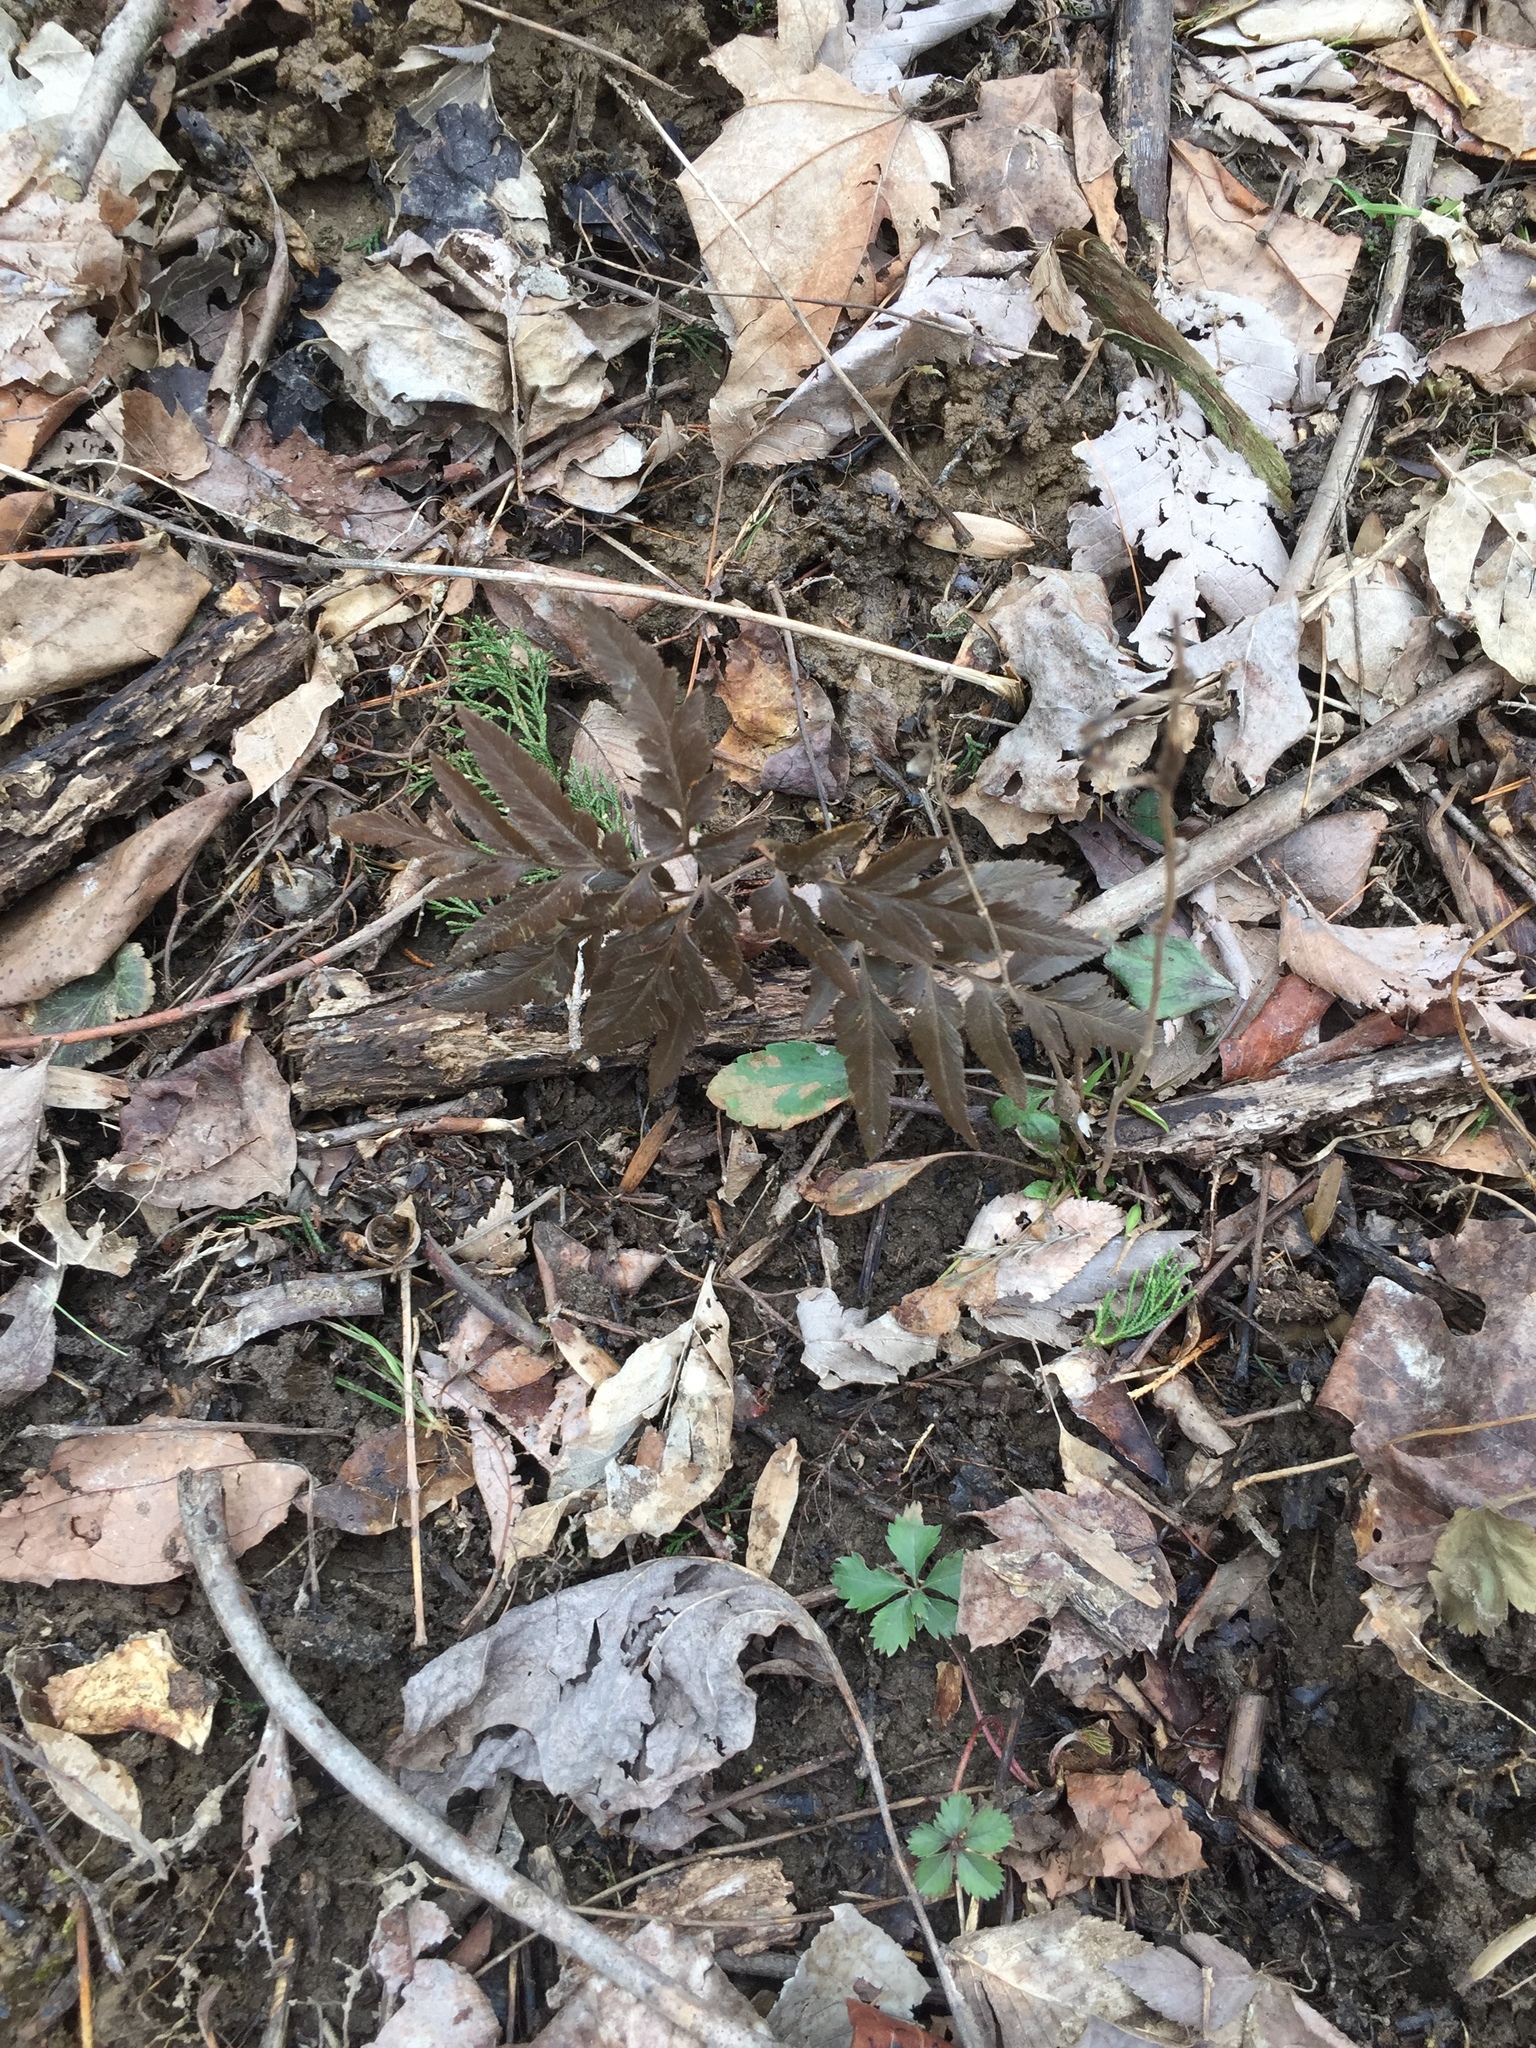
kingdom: Plantae
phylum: Tracheophyta
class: Polypodiopsida
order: Ophioglossales
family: Ophioglossaceae
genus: Sceptridium
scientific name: Sceptridium dissectum
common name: Cut-leaved grapefern
